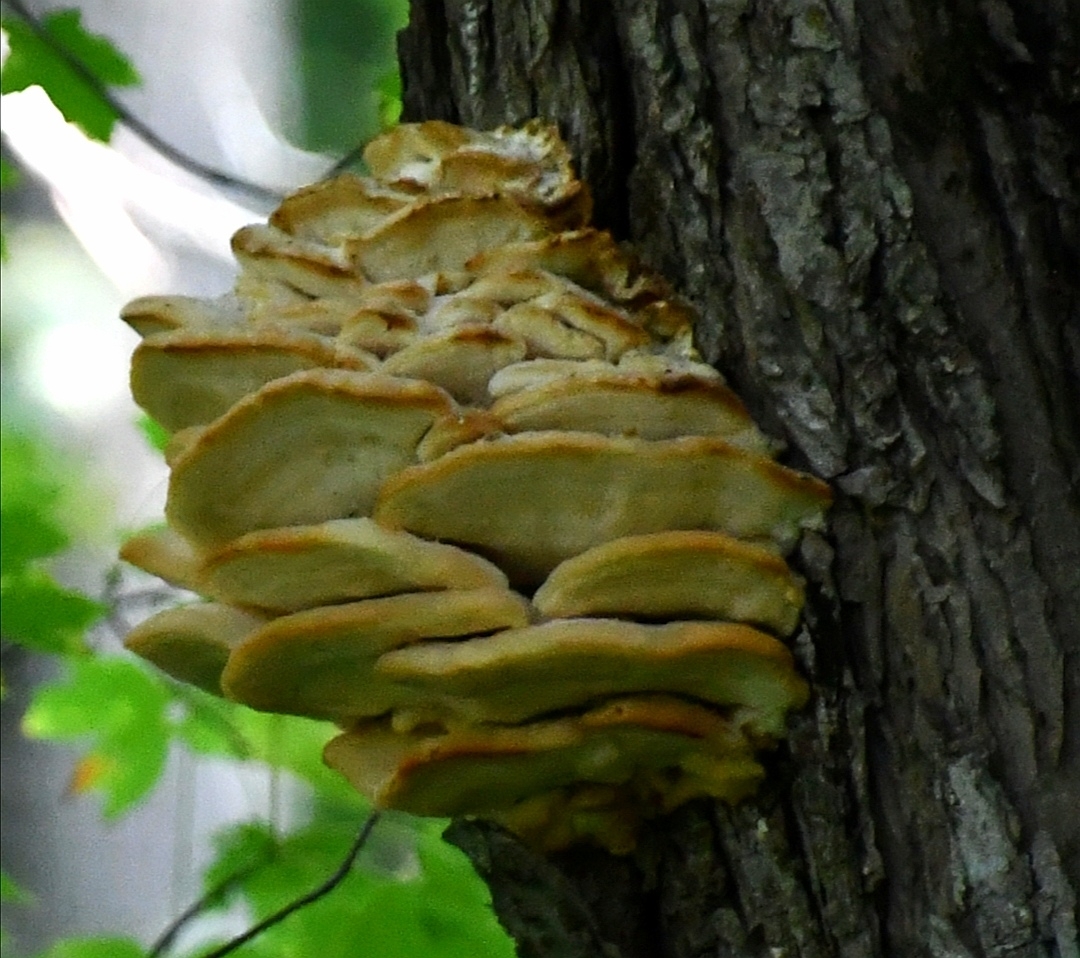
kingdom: Fungi
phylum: Basidiomycota
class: Agaricomycetes
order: Polyporales
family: Meruliaceae
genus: Climacodon
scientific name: Climacodon septentrionalis
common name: Northern tooth
